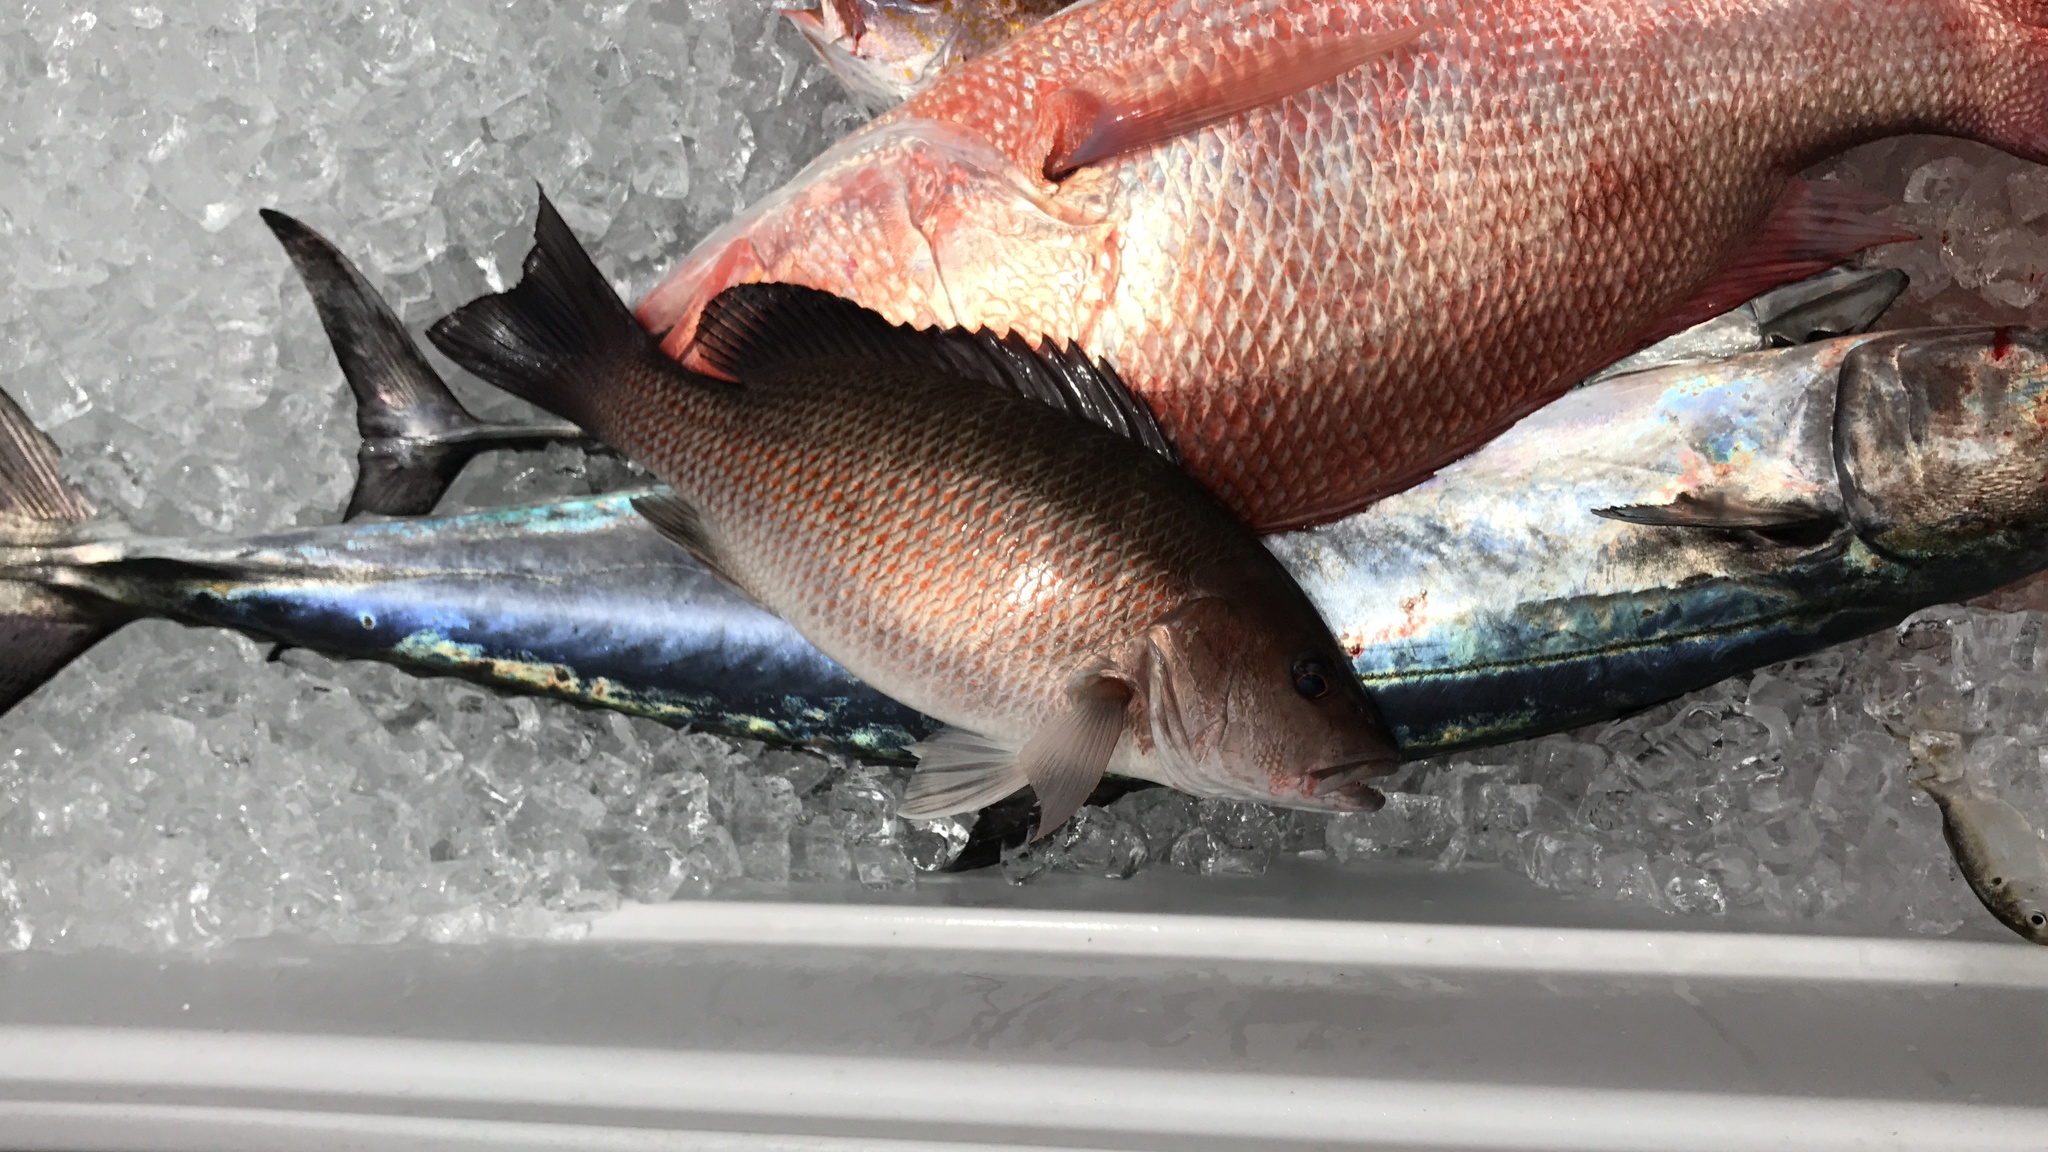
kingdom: Animalia
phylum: Chordata
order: Perciformes
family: Lutjanidae
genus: Lutjanus
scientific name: Lutjanus griseus
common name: Gray snapper
